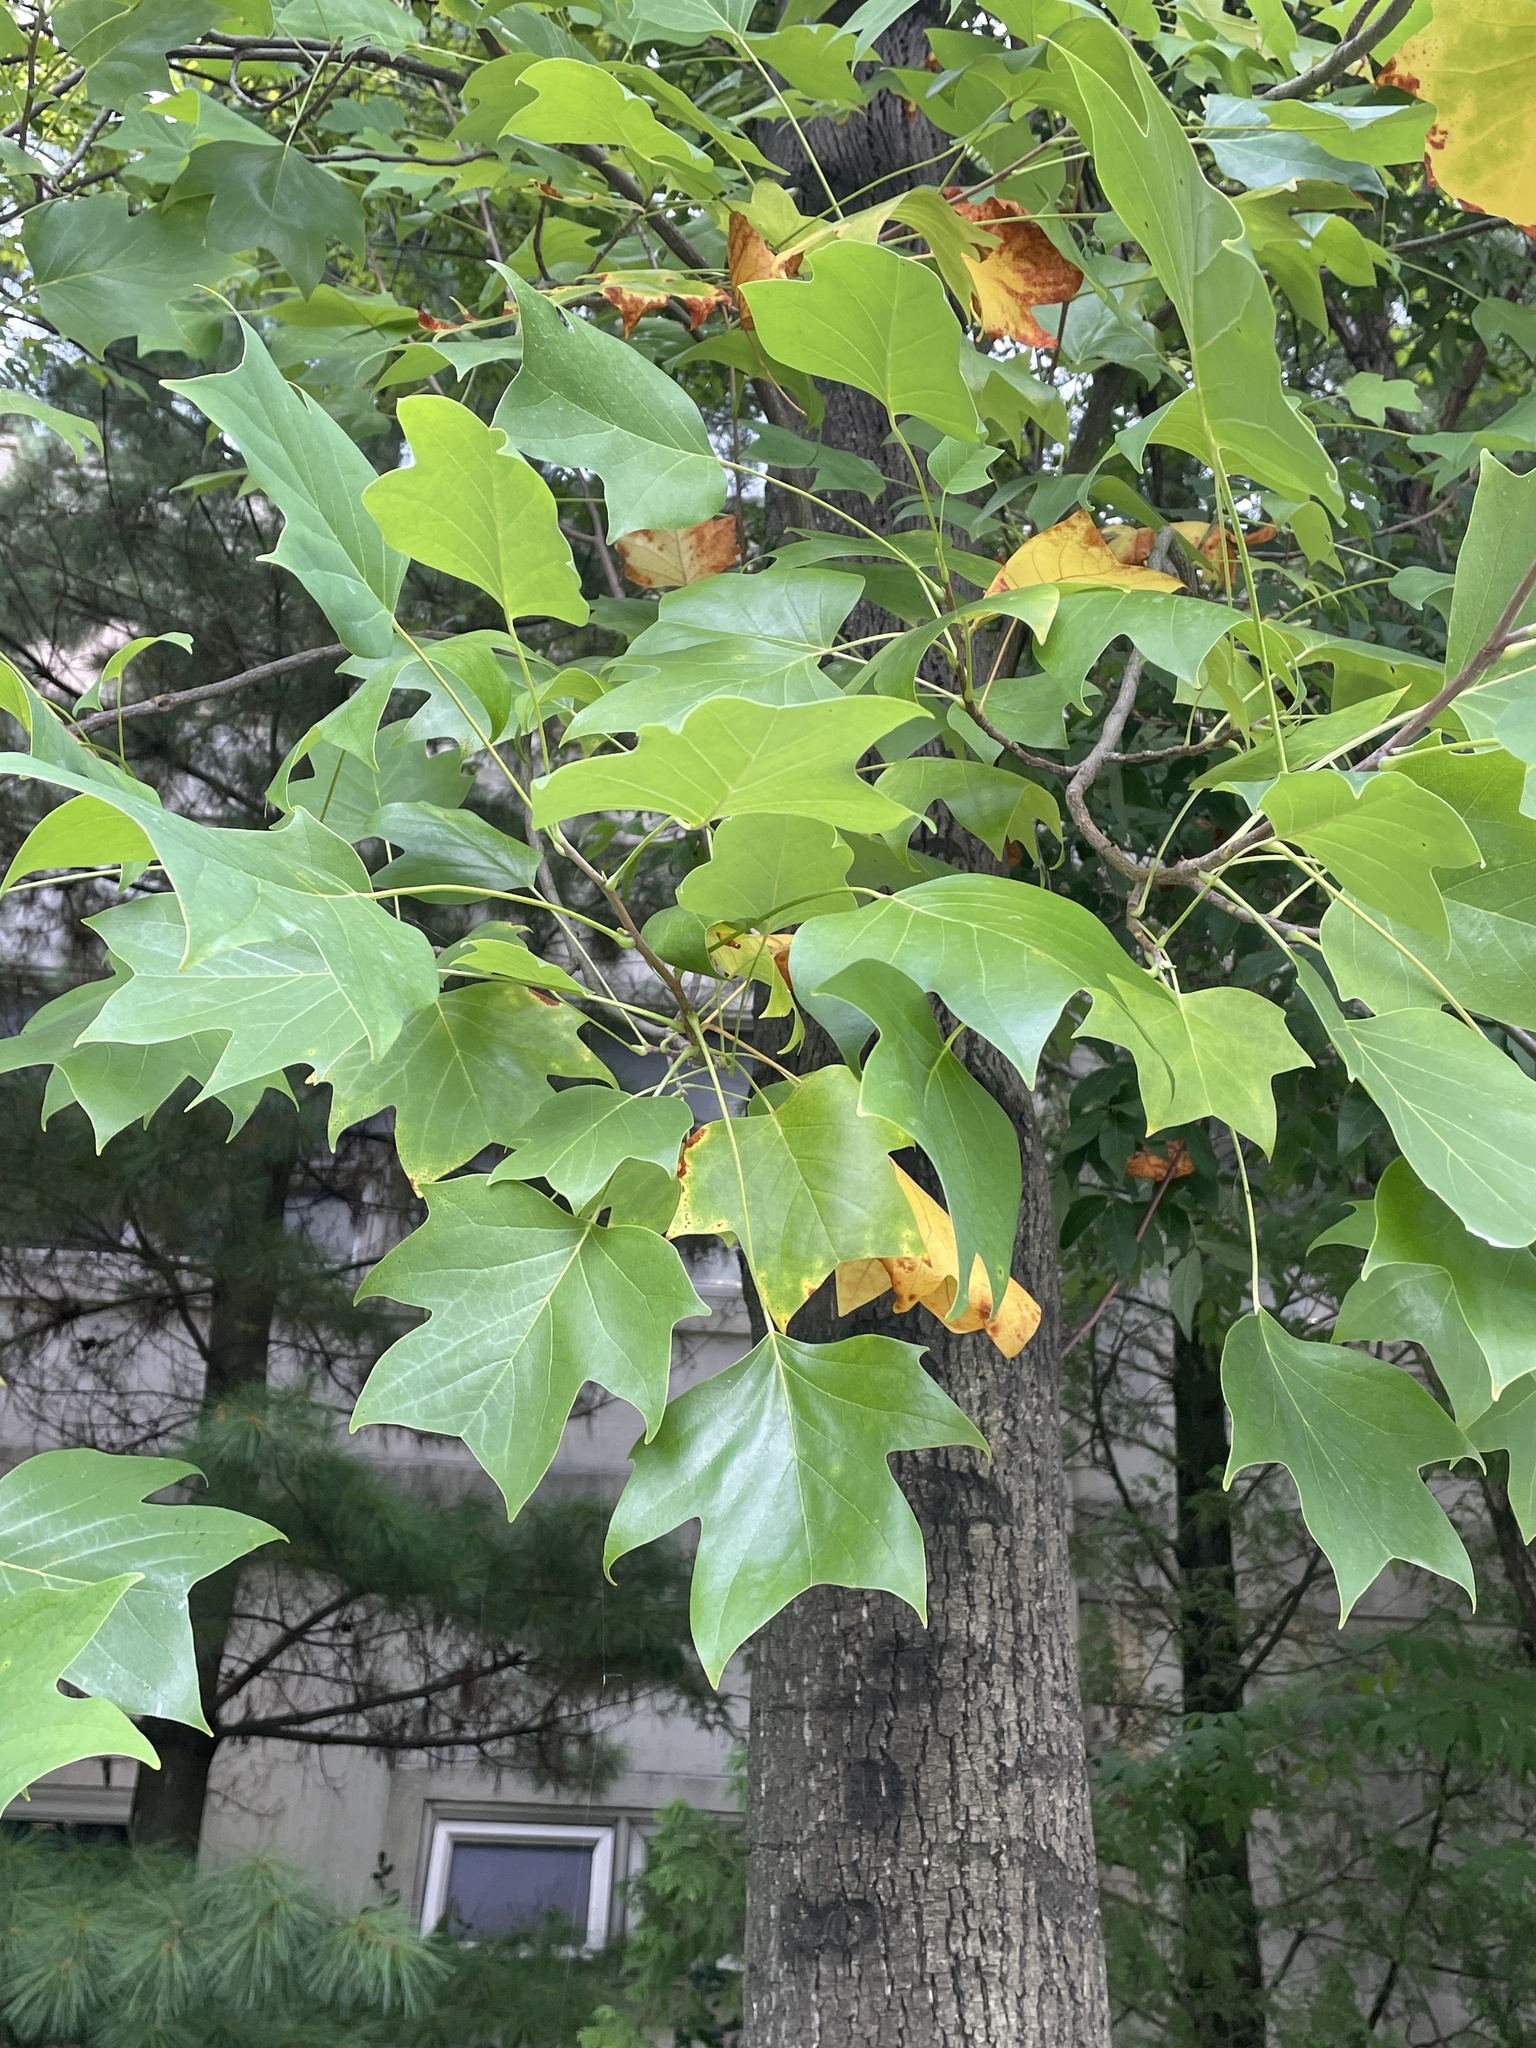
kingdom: Plantae
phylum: Tracheophyta
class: Magnoliopsida
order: Magnoliales
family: Magnoliaceae
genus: Liriodendron
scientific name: Liriodendron chinense
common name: Chinese tuliptree
